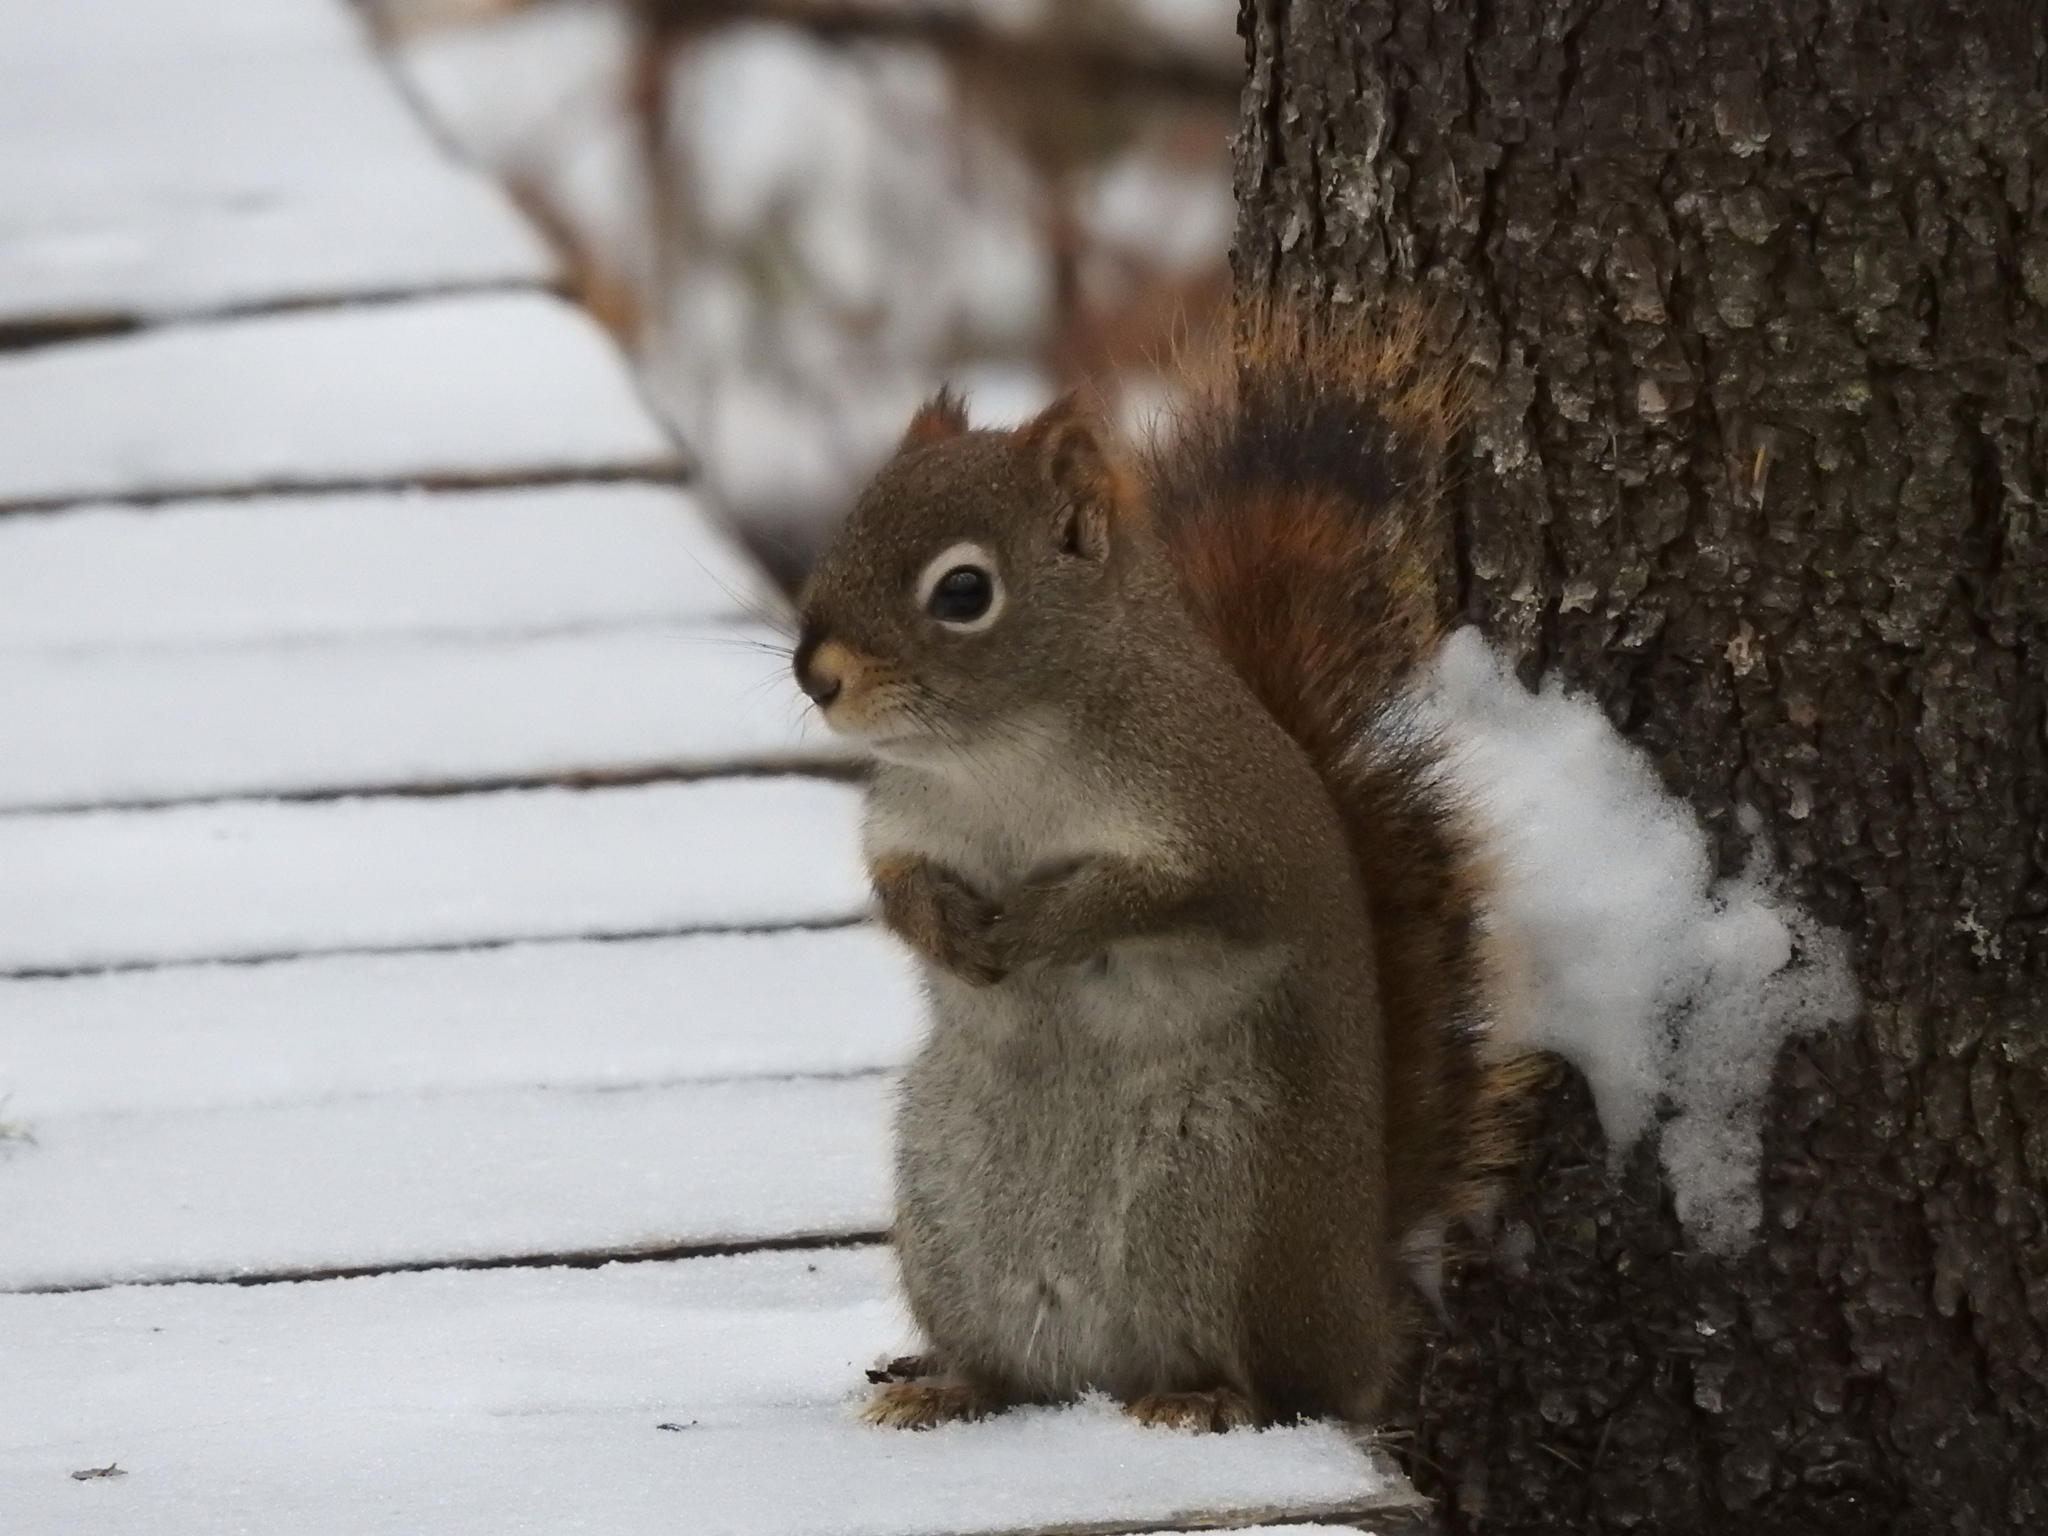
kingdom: Animalia
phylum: Chordata
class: Mammalia
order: Rodentia
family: Sciuridae
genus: Tamiasciurus
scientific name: Tamiasciurus hudsonicus
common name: Red squirrel
